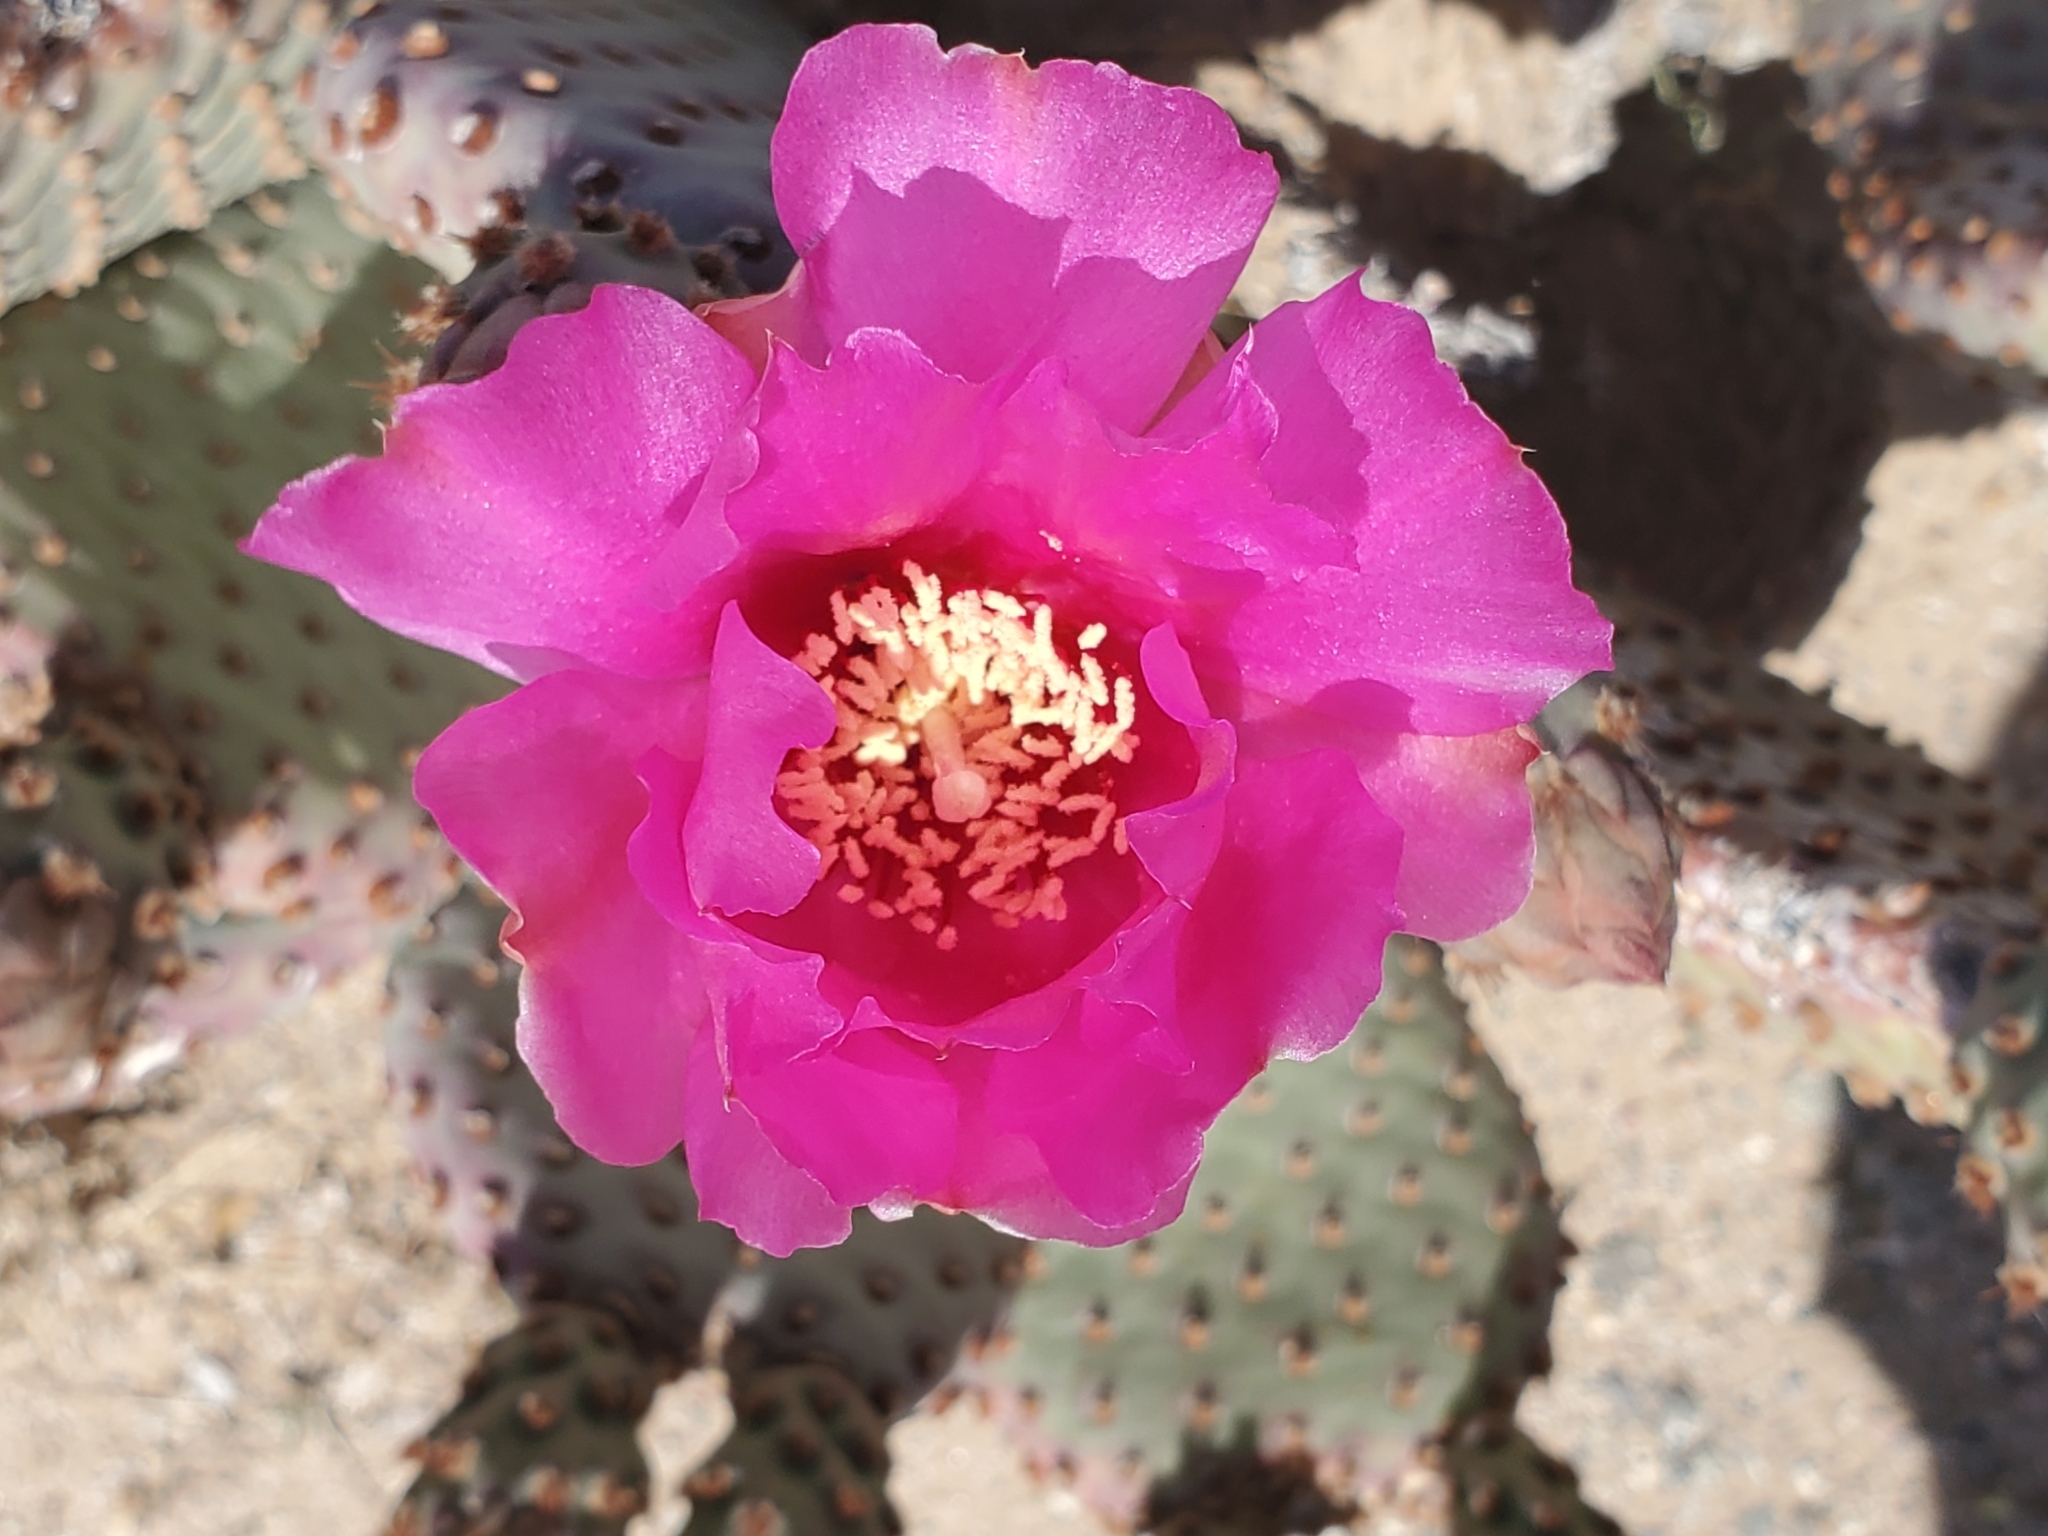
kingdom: Plantae
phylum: Tracheophyta
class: Magnoliopsida
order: Caryophyllales
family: Cactaceae
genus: Opuntia
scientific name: Opuntia basilaris
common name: Beavertail prickly-pear
